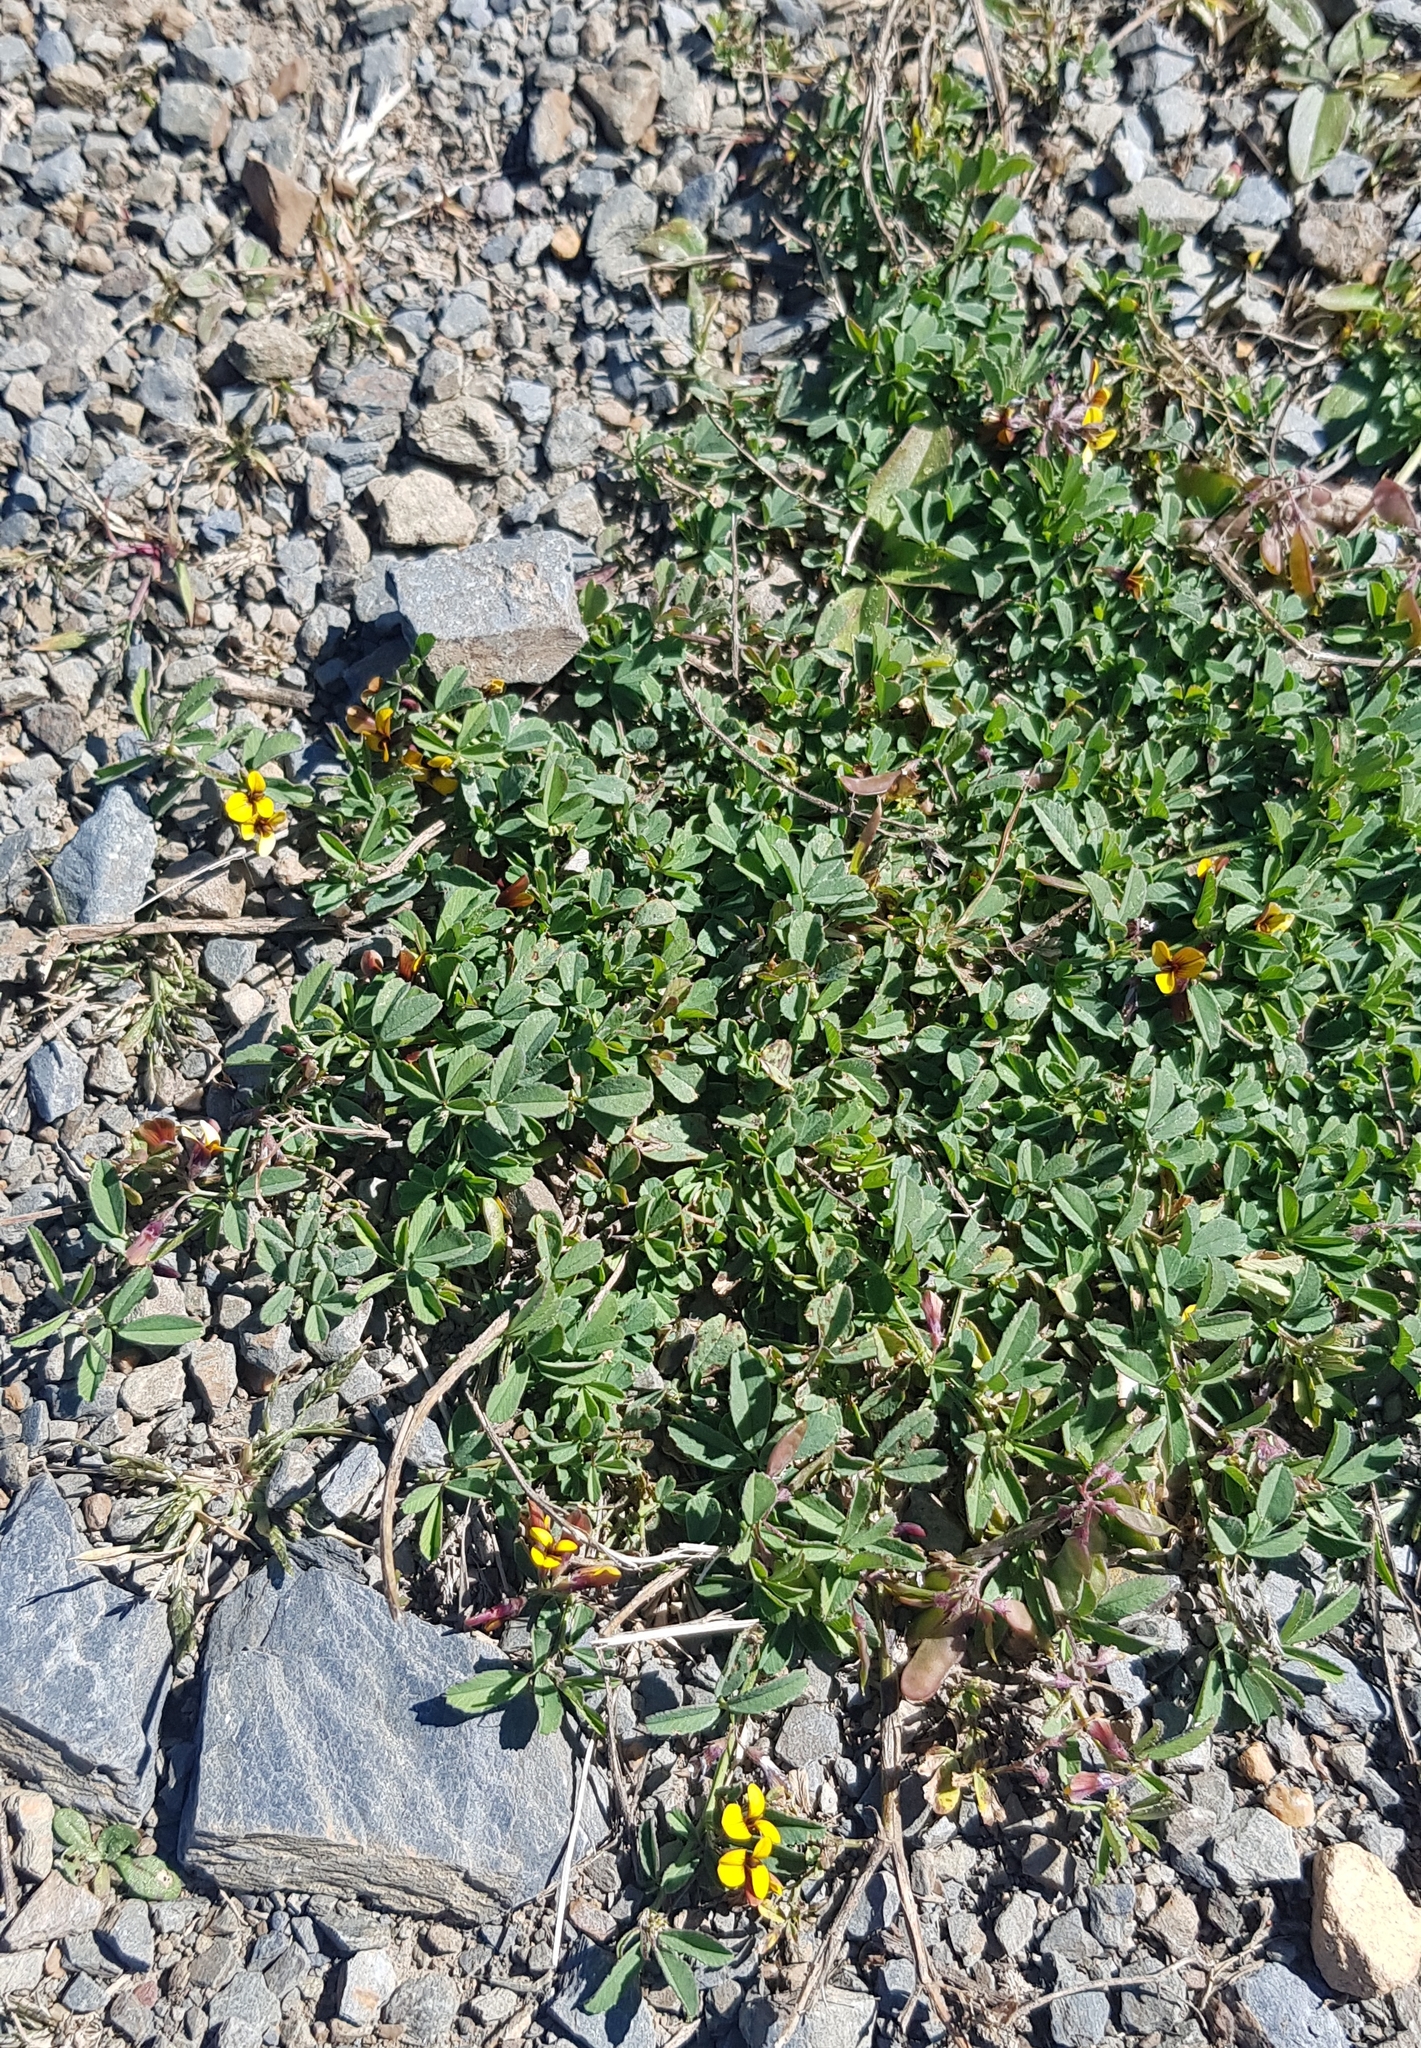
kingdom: Plantae
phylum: Tracheophyta
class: Magnoliopsida
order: Fabales
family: Fabaceae
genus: Medicago
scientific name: Medicago ruthenica
